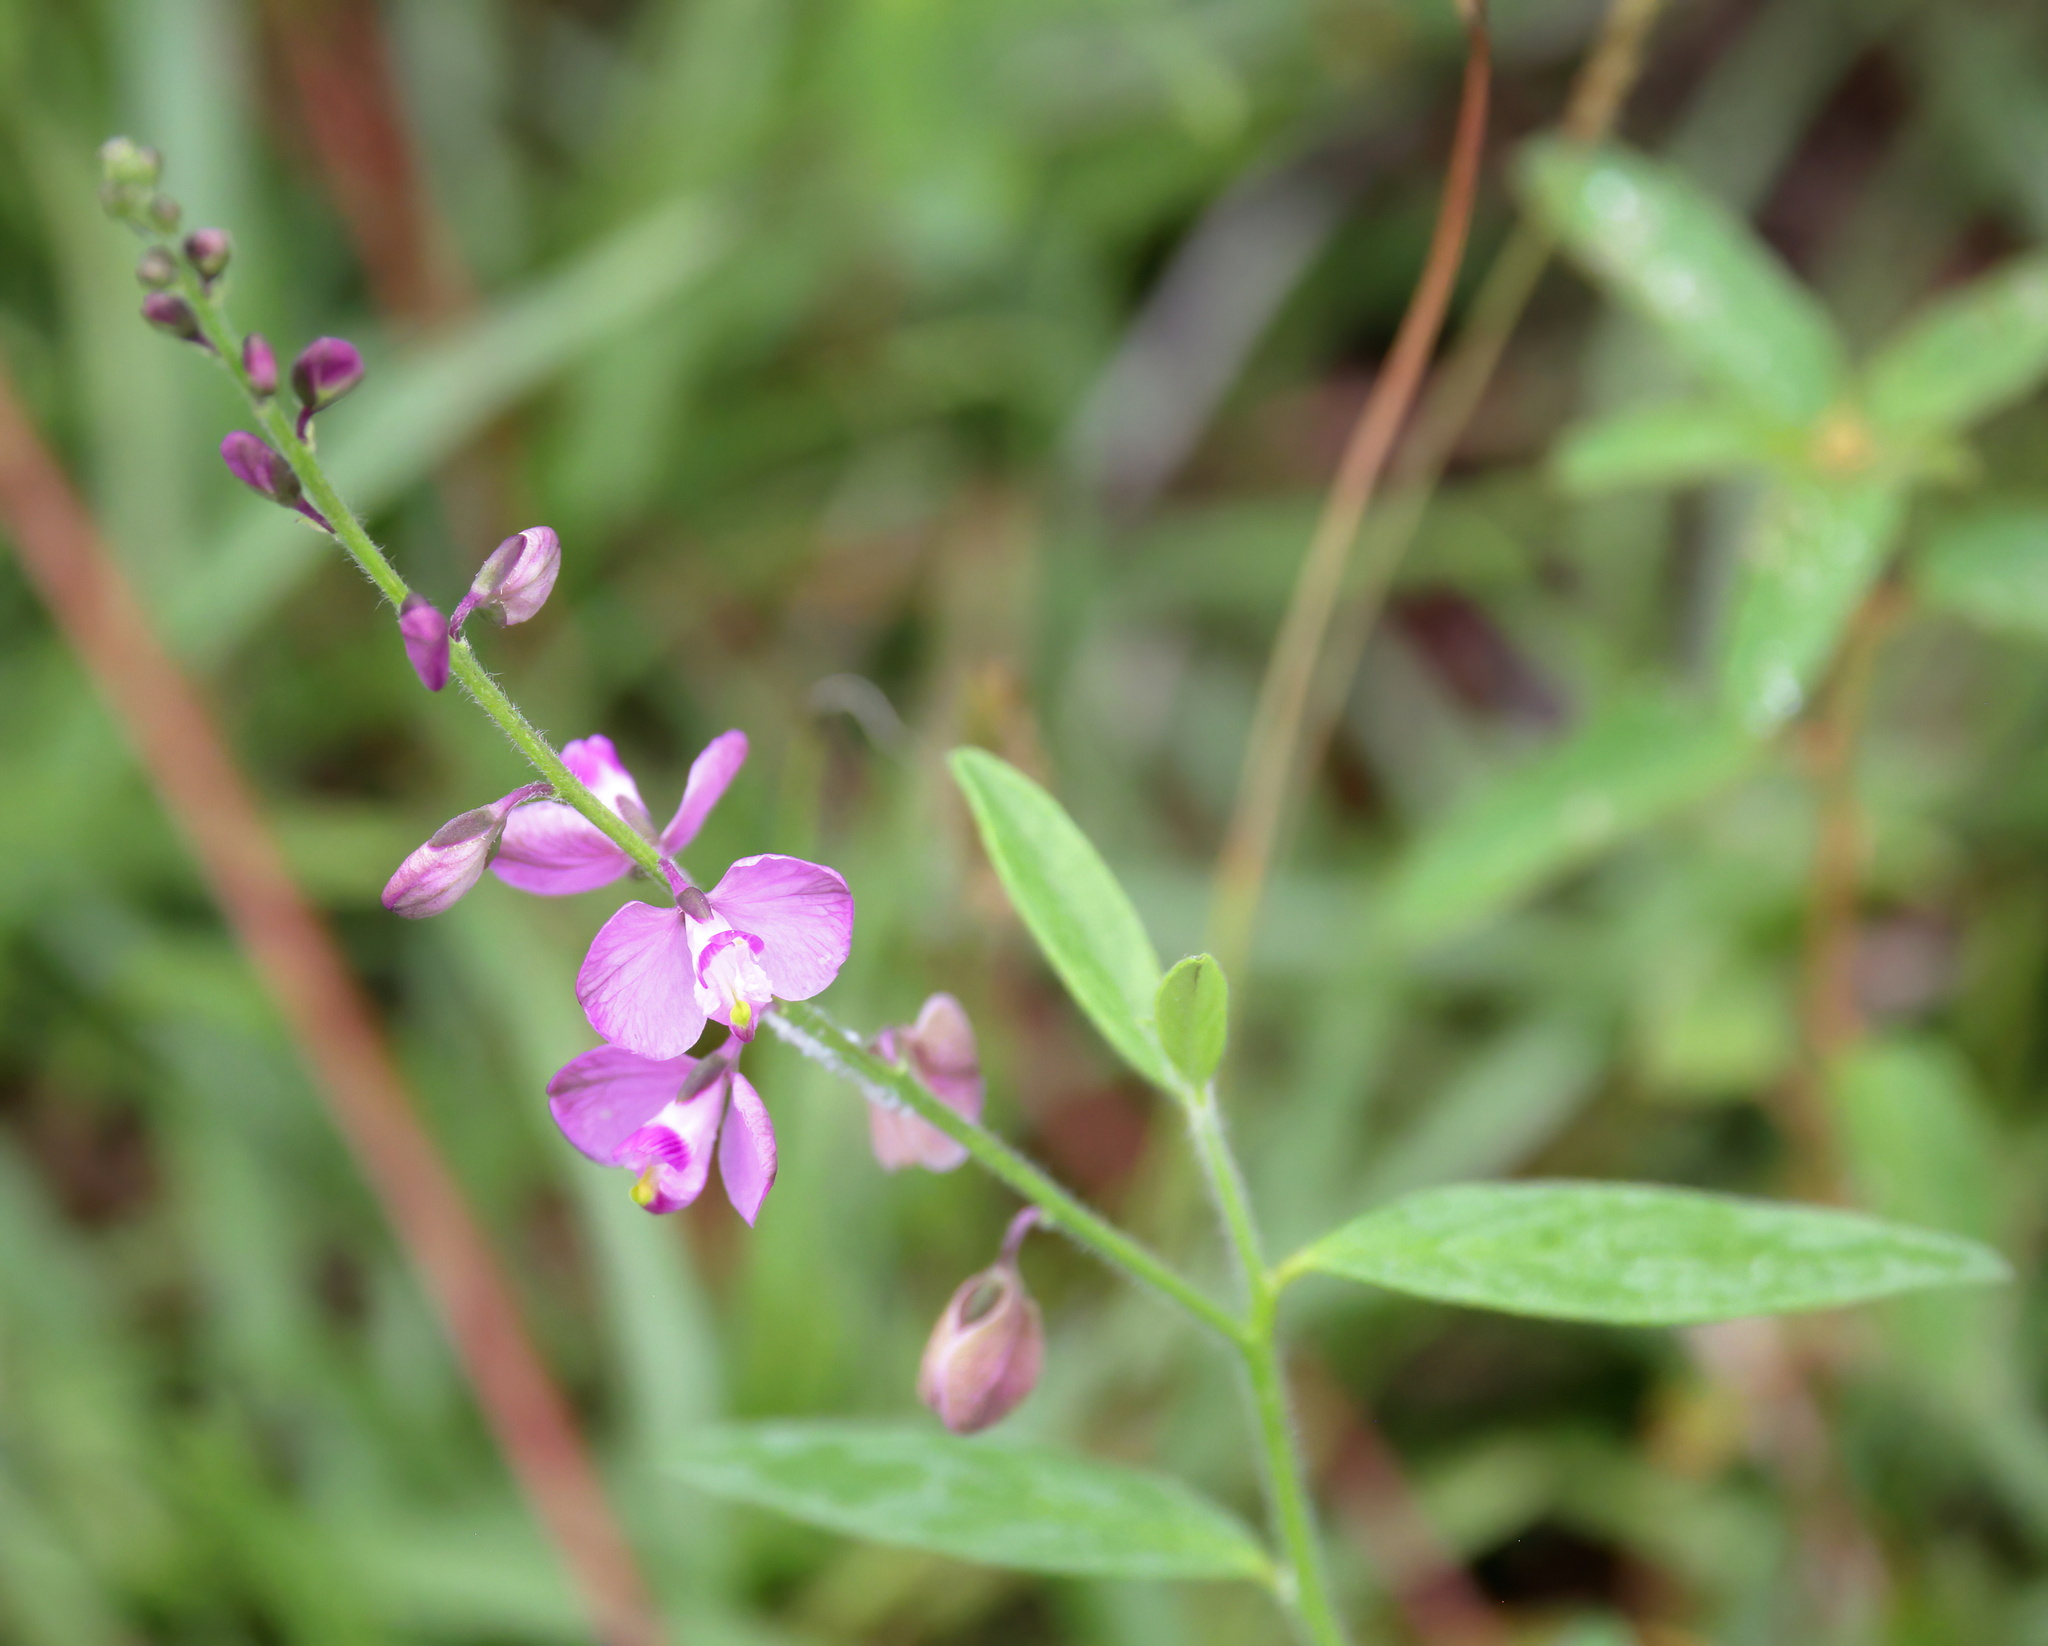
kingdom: Plantae
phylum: Tracheophyta
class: Magnoliopsida
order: Fabales
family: Polygalaceae
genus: Asemeia
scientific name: Asemeia grandiflora
